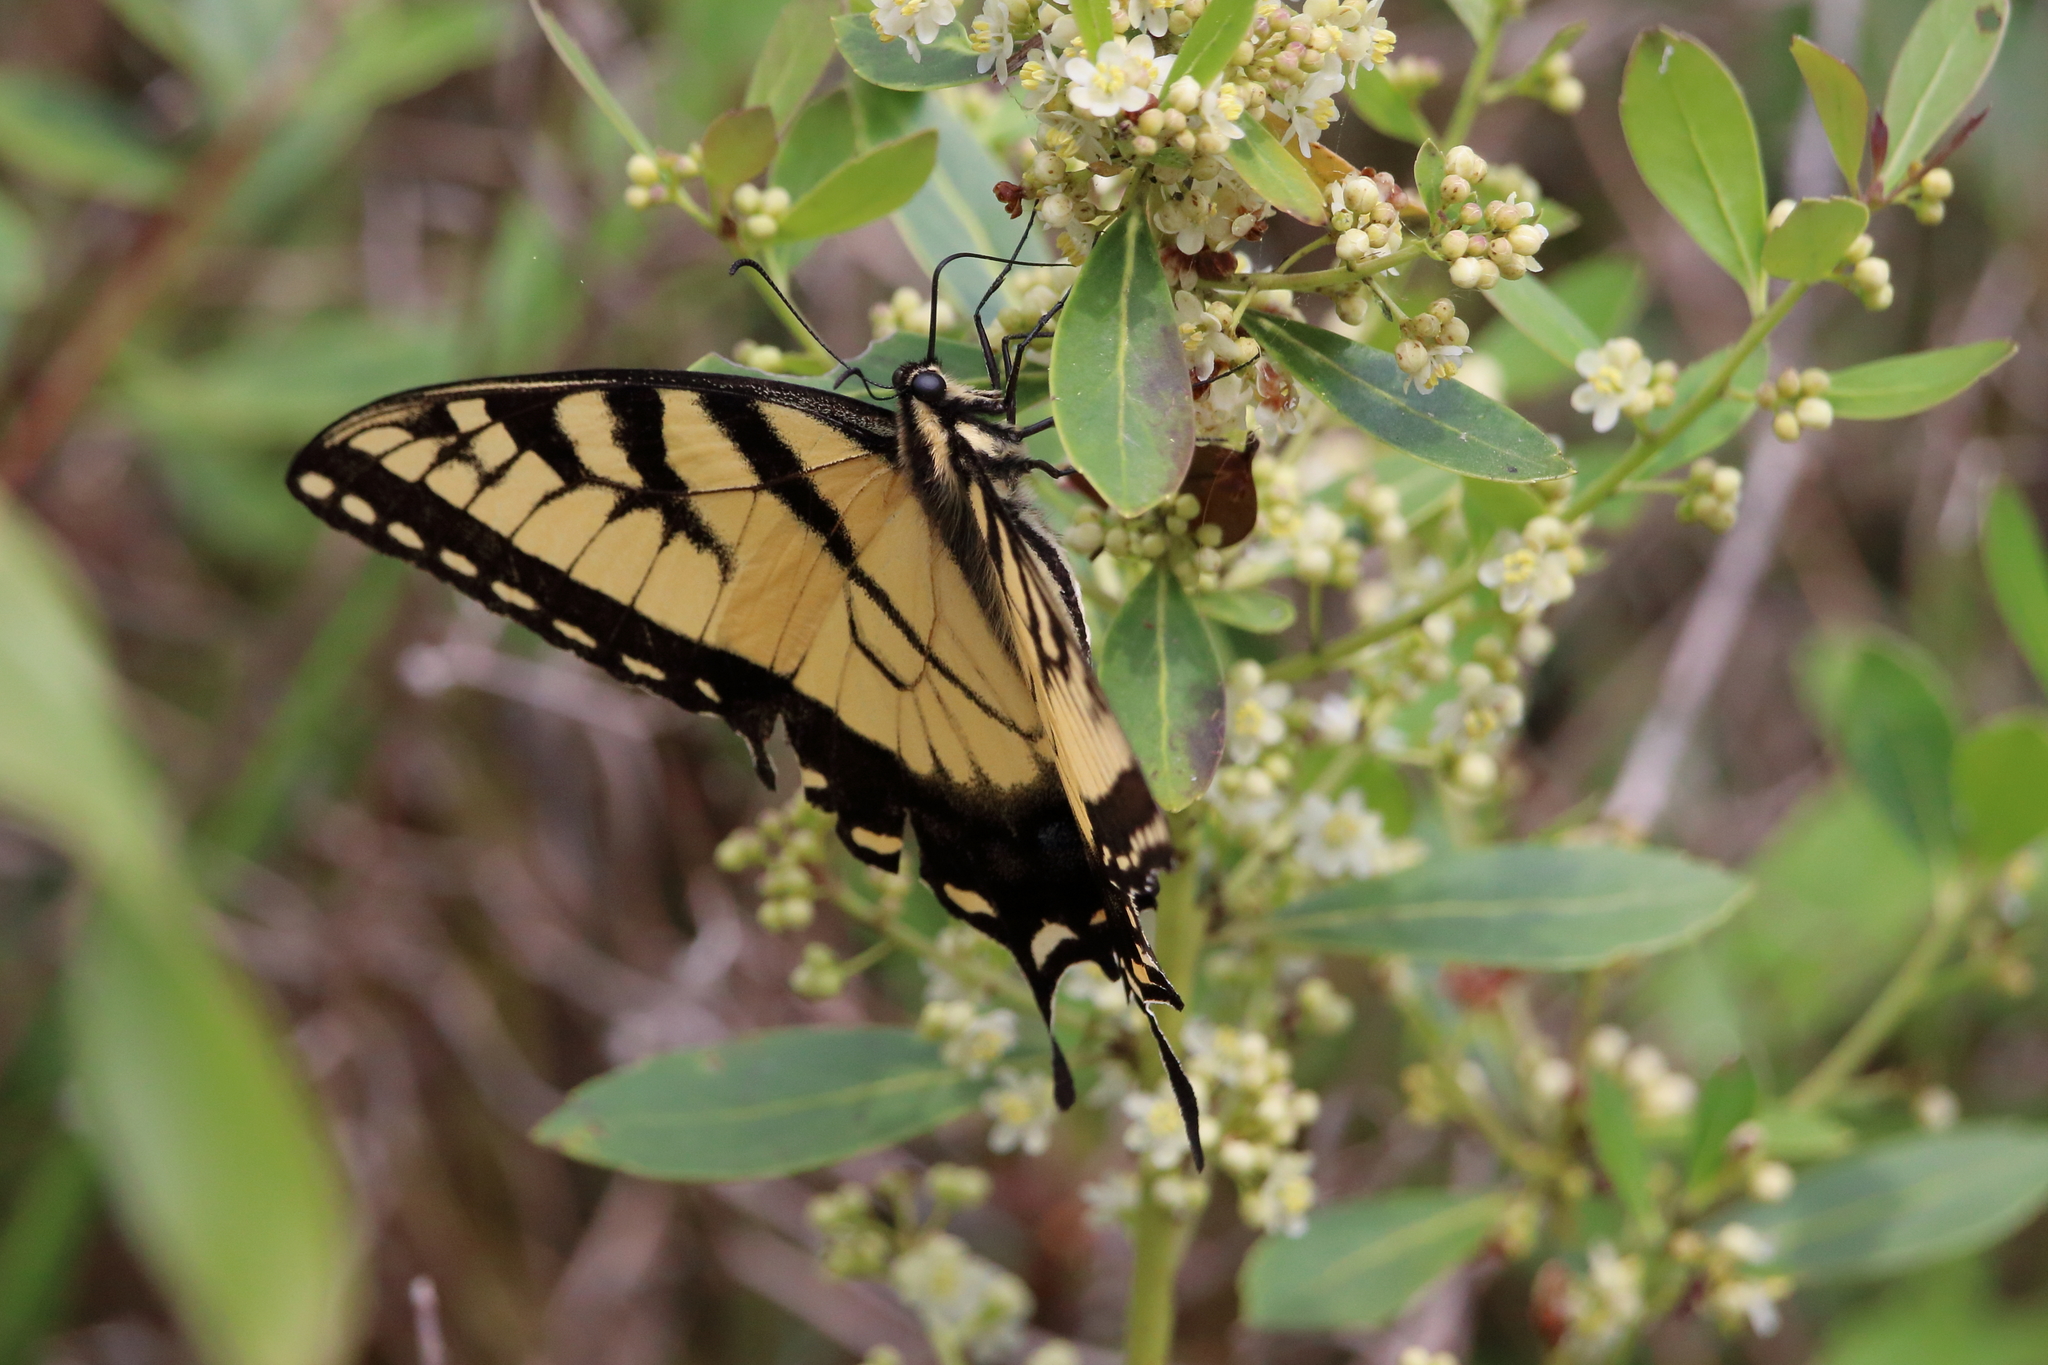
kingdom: Animalia
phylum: Arthropoda
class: Insecta
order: Lepidoptera
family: Papilionidae
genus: Papilio
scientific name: Papilio glaucus
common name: Tiger swallowtail
